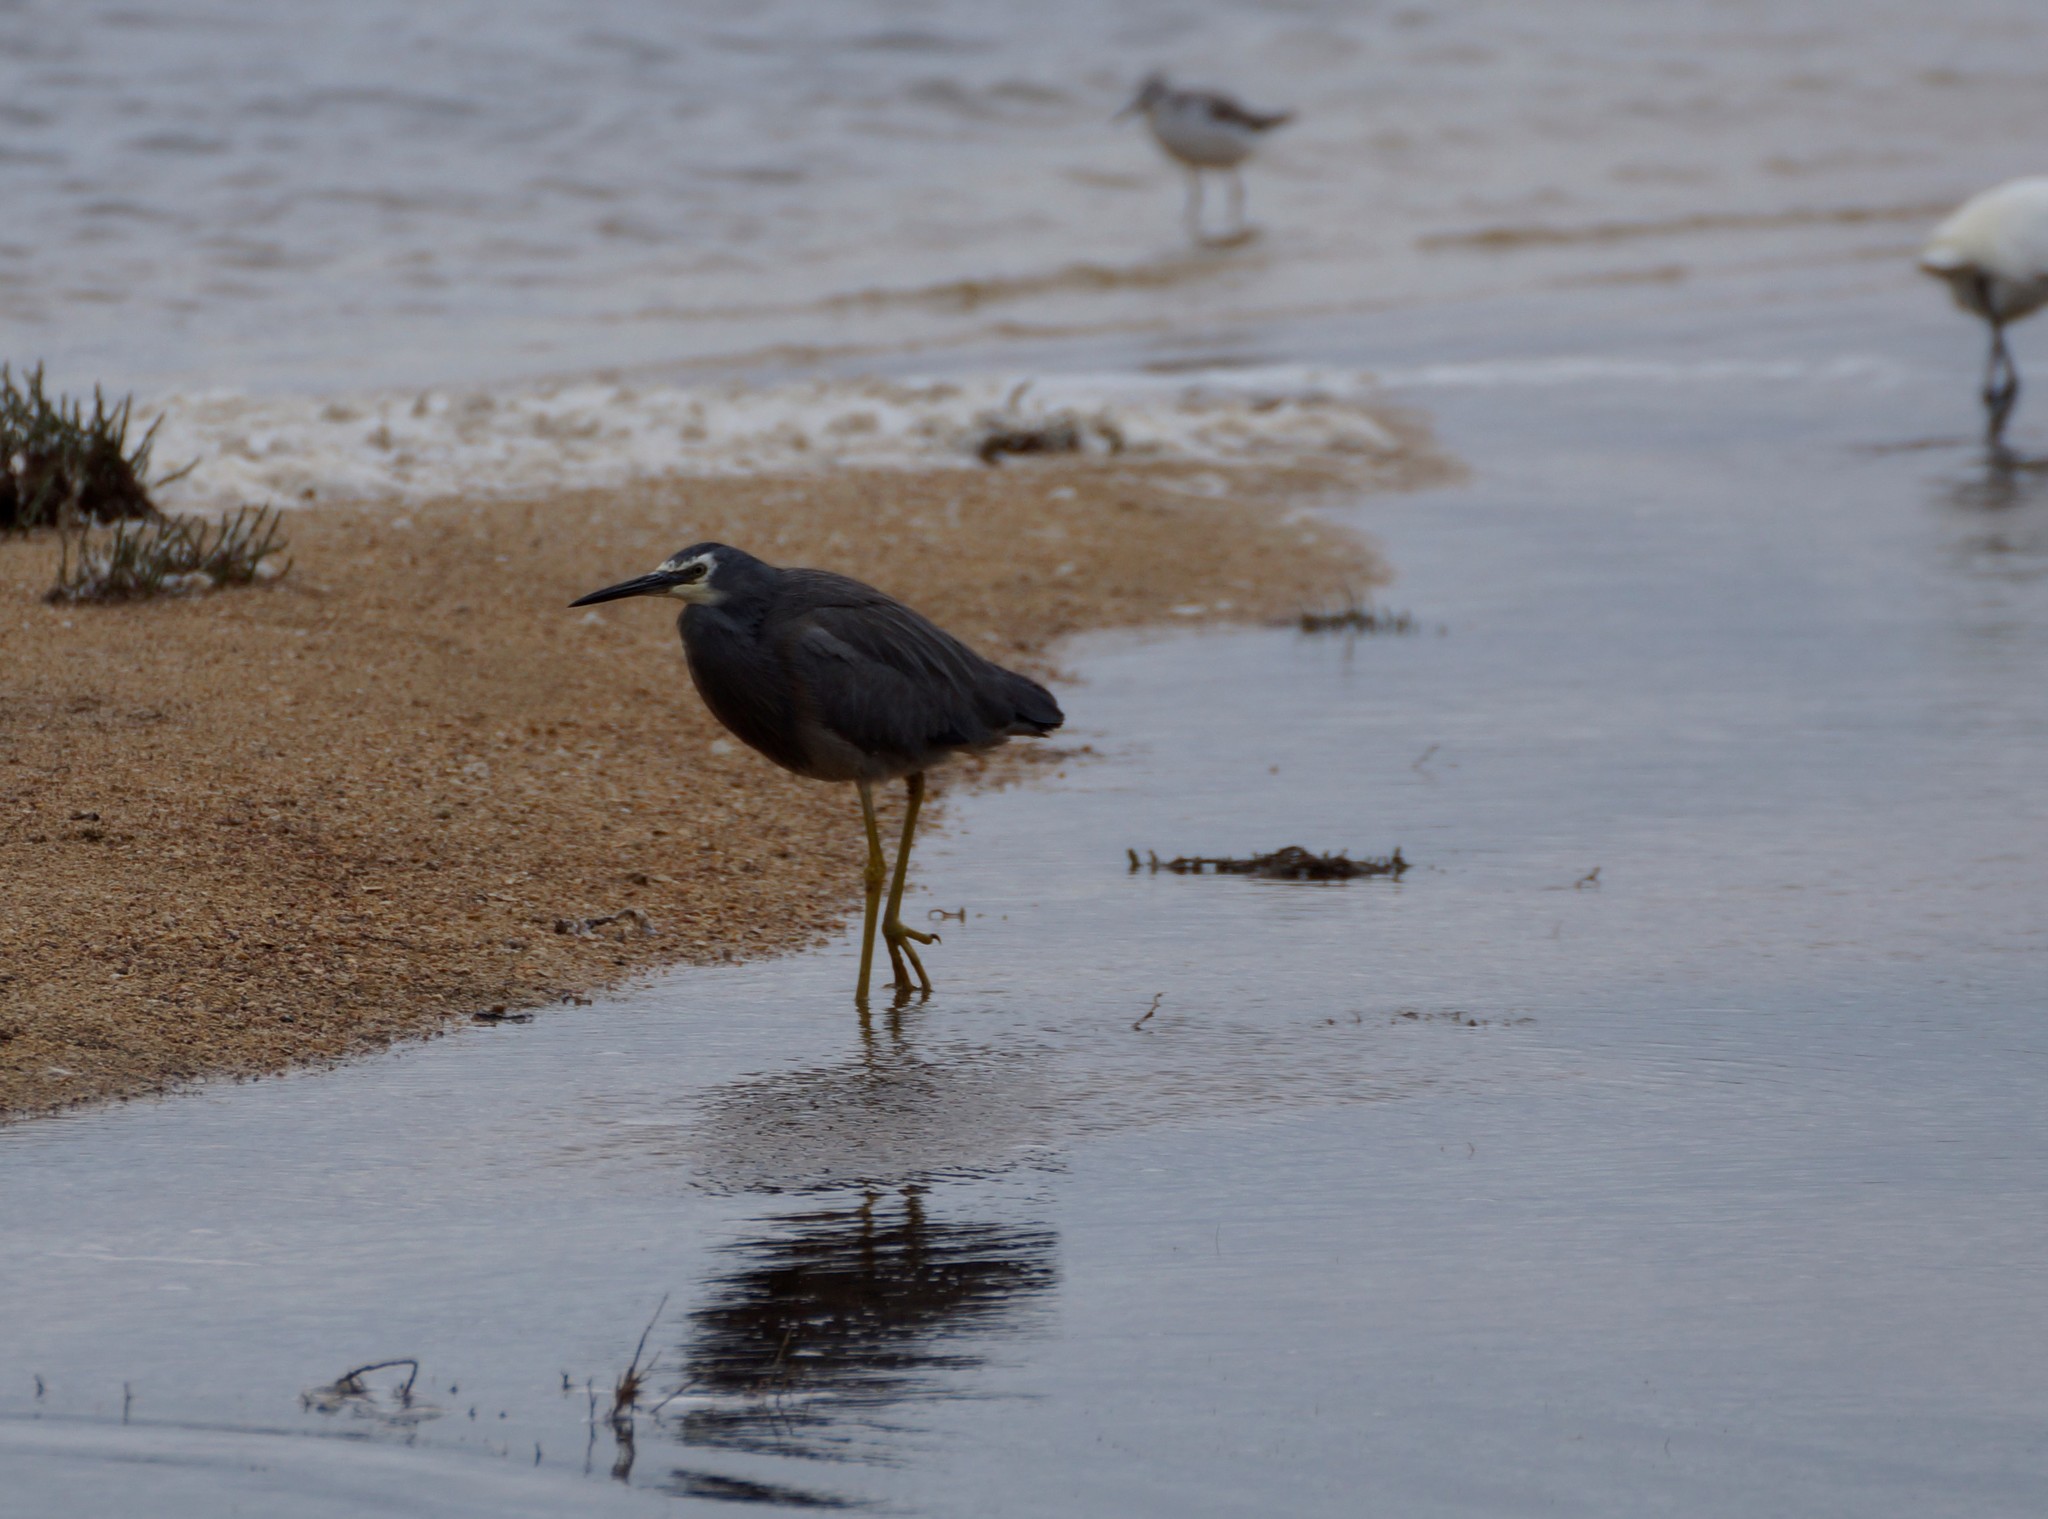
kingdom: Animalia
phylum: Chordata
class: Aves
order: Pelecaniformes
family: Ardeidae
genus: Egretta
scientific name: Egretta novaehollandiae
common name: White-faced heron
